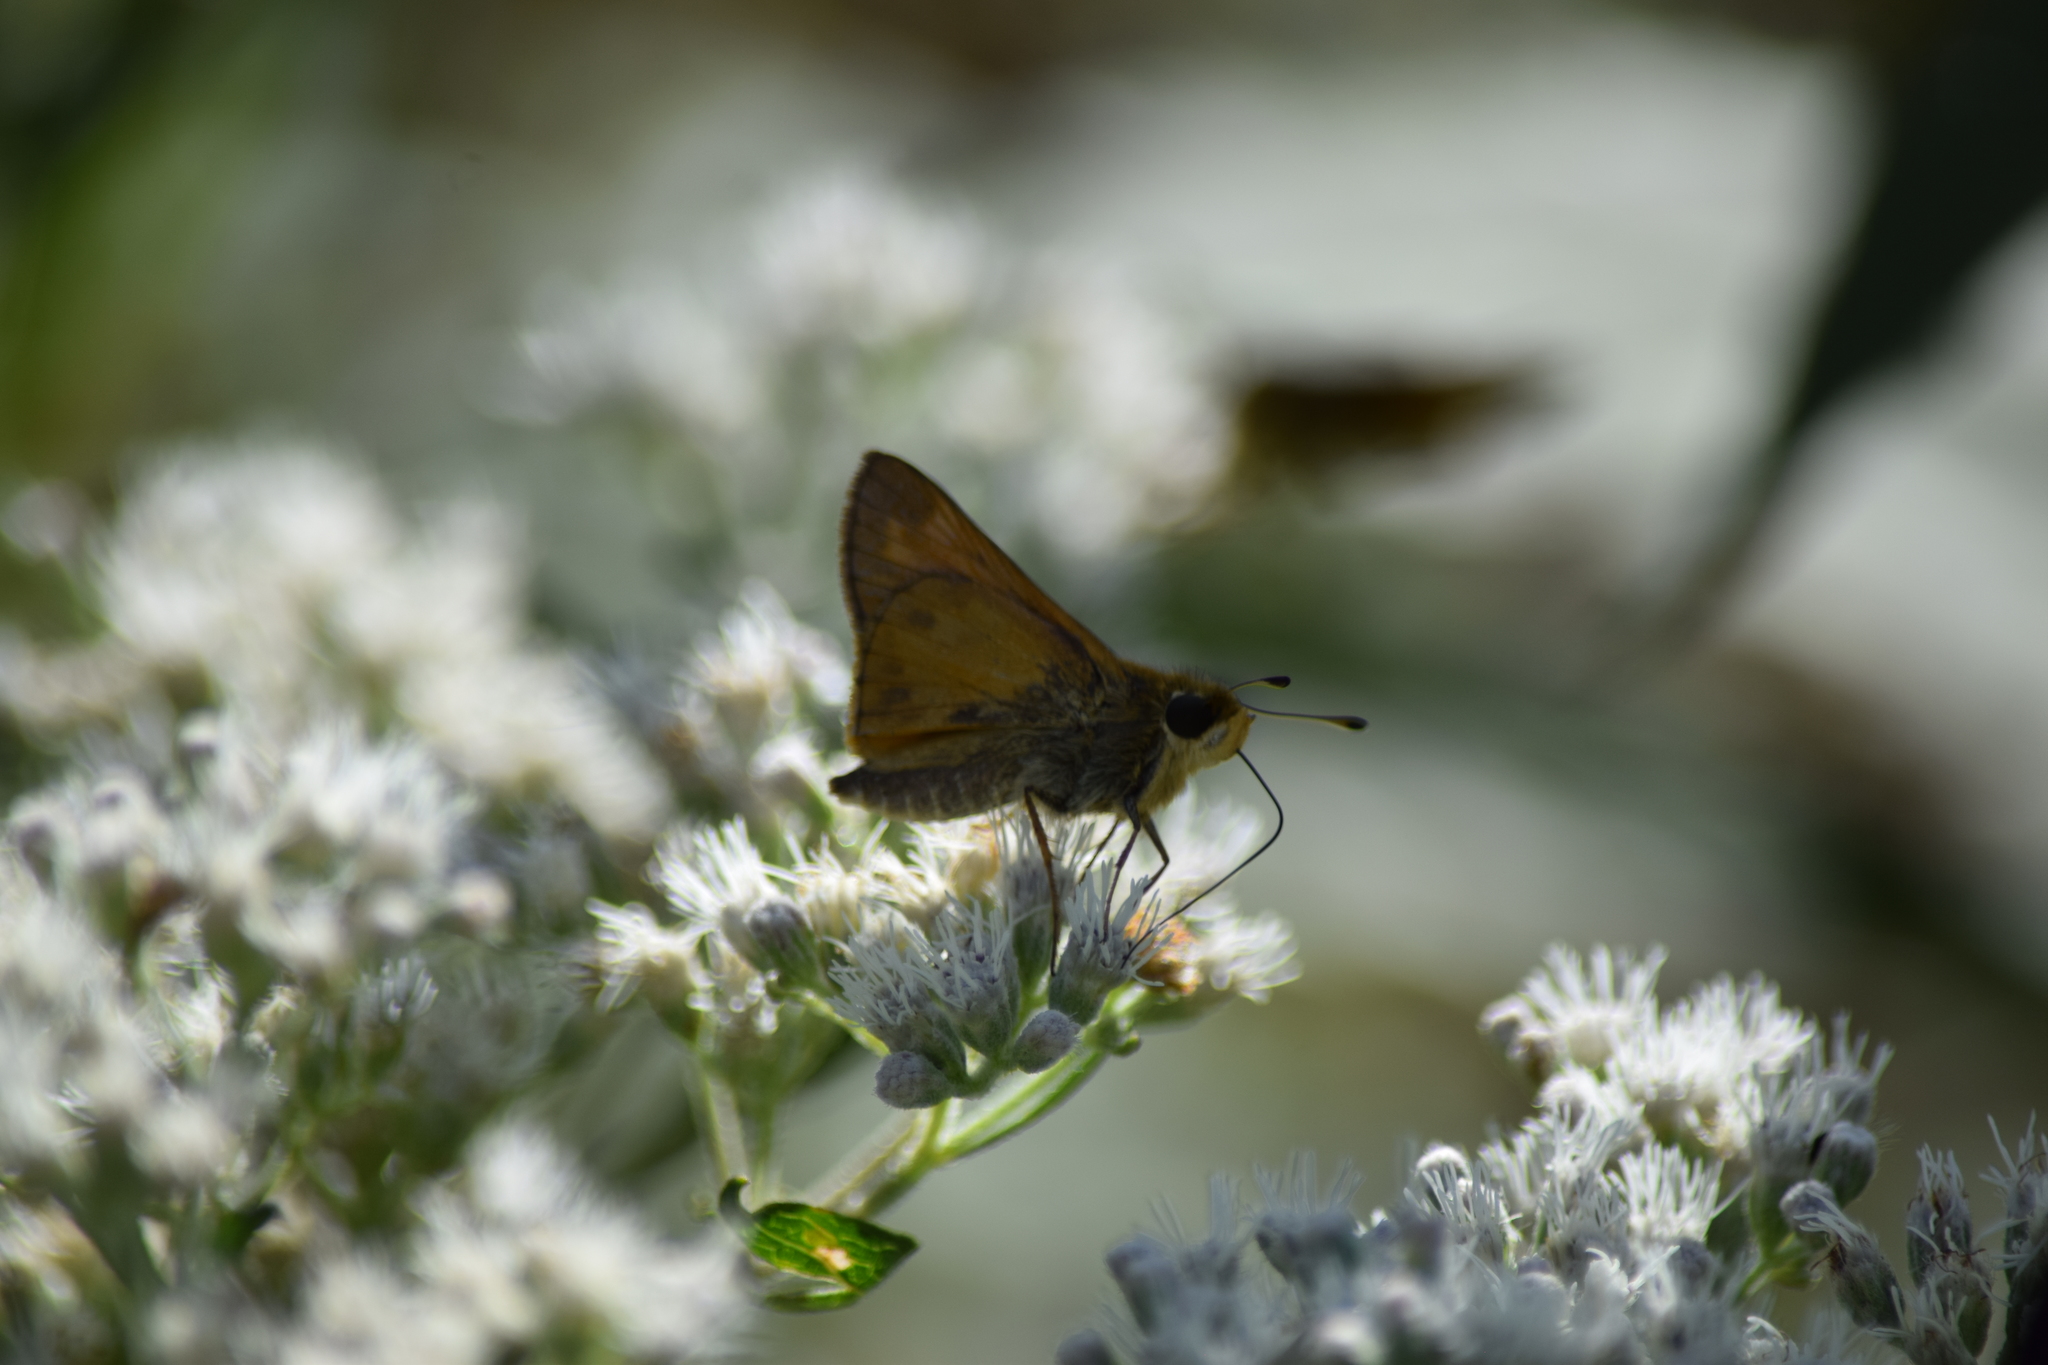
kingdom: Animalia
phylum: Arthropoda
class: Insecta
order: Lepidoptera
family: Hesperiidae
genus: Atalopedes
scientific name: Atalopedes
